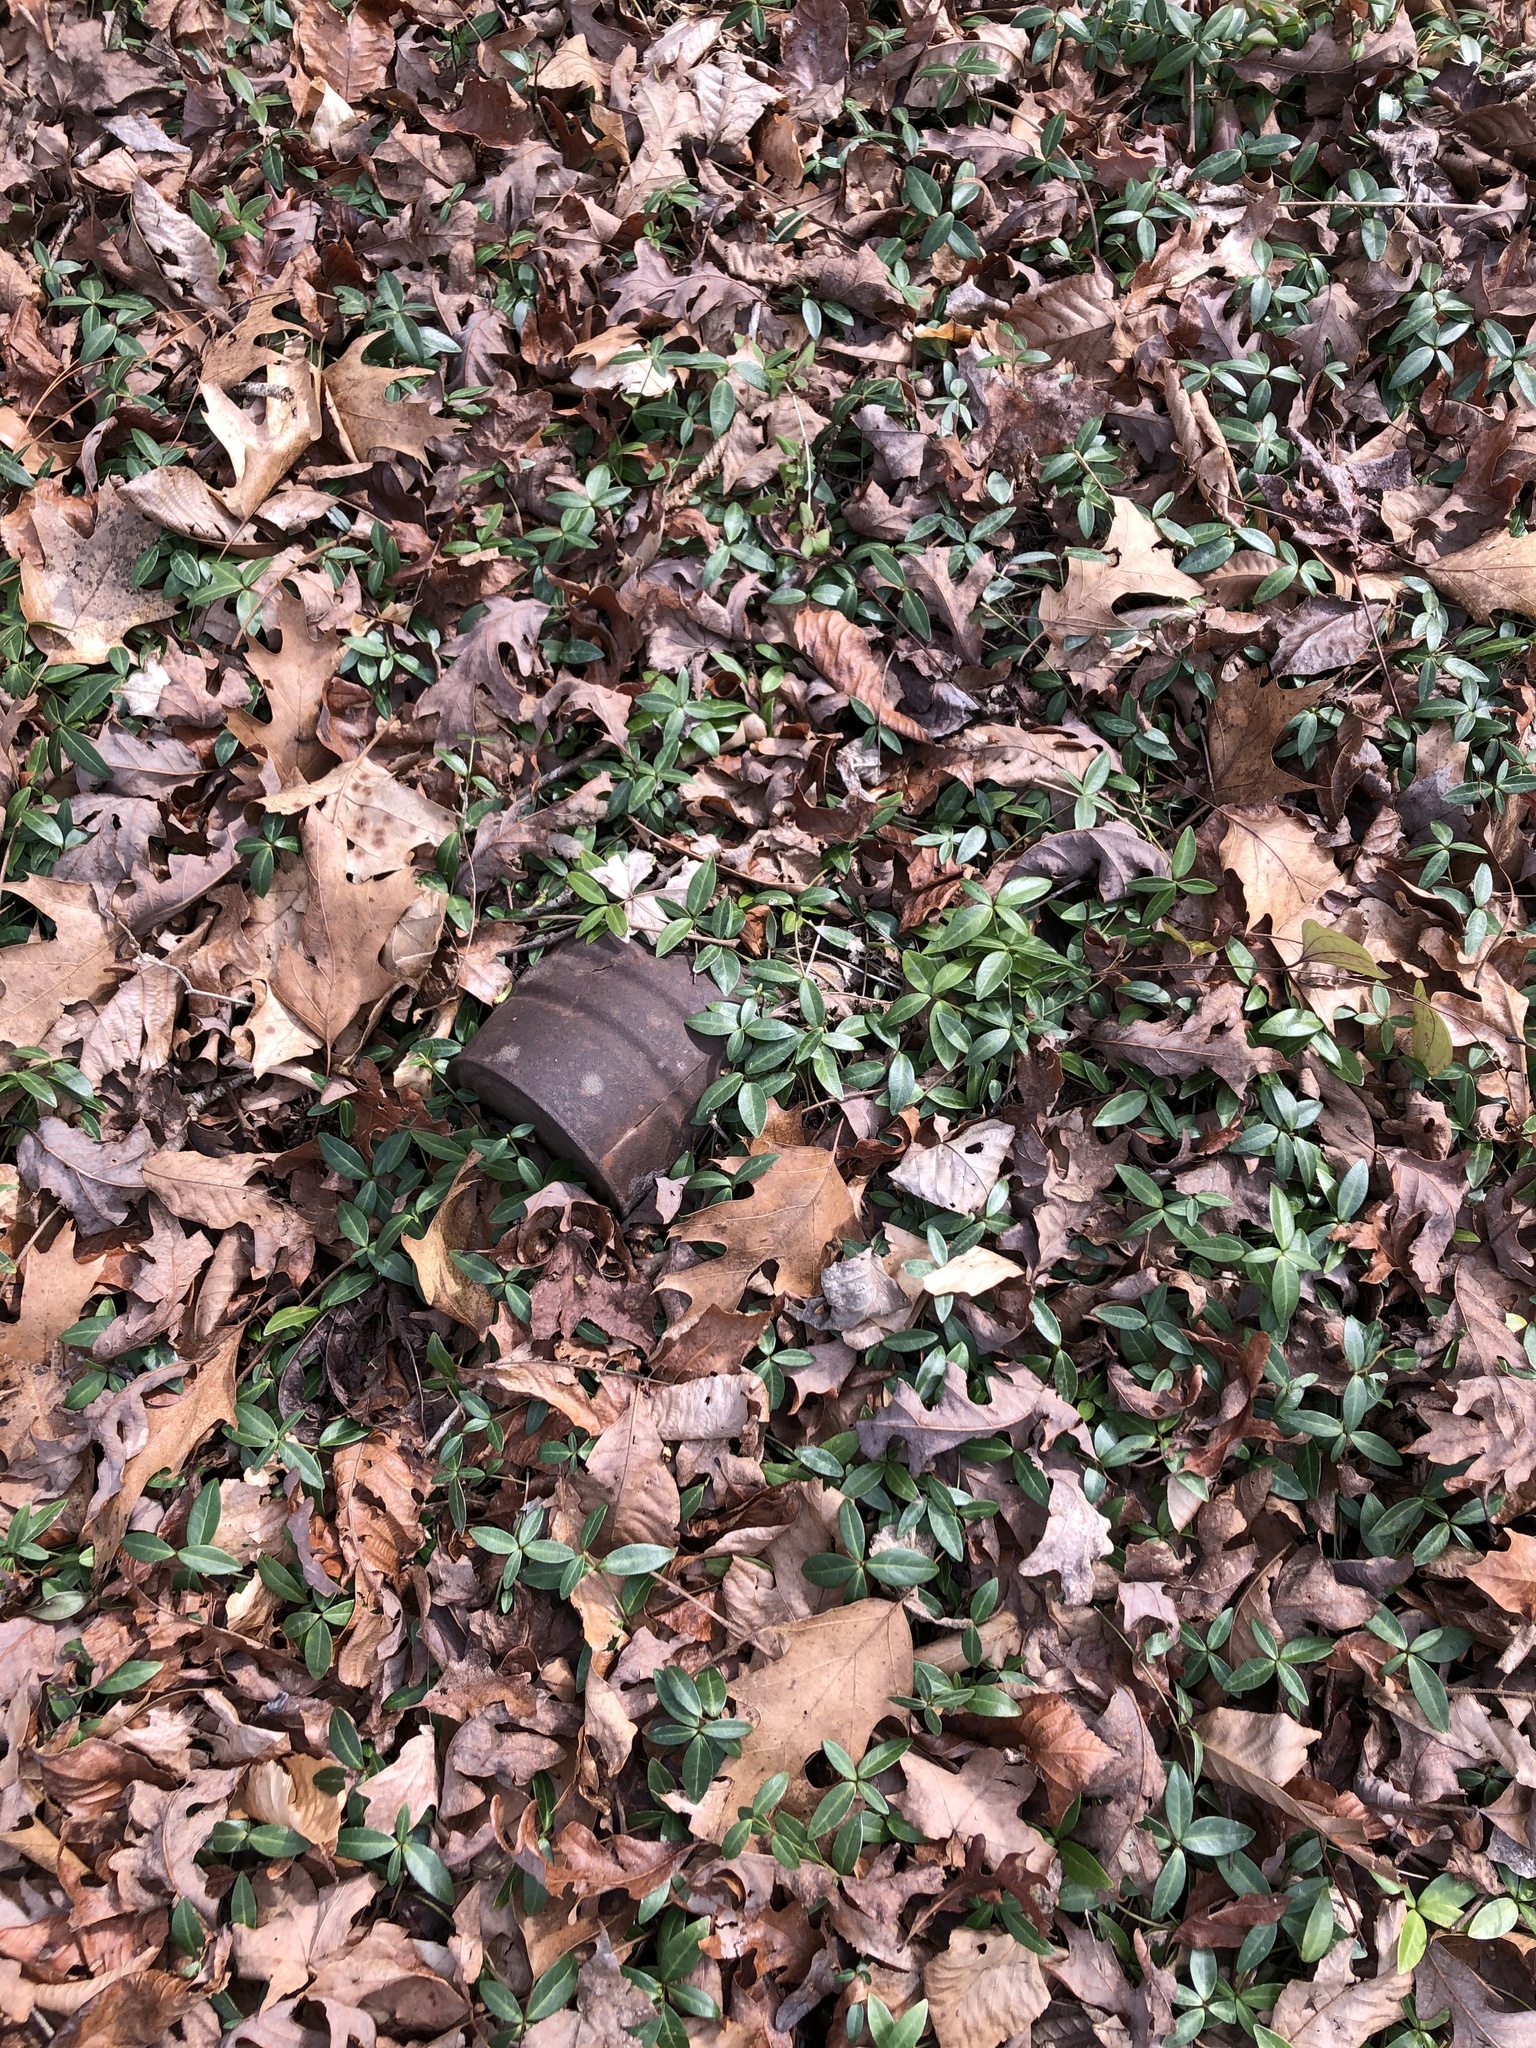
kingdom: Plantae
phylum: Tracheophyta
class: Magnoliopsida
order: Gentianales
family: Apocynaceae
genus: Vinca
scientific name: Vinca minor
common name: Lesser periwinkle
